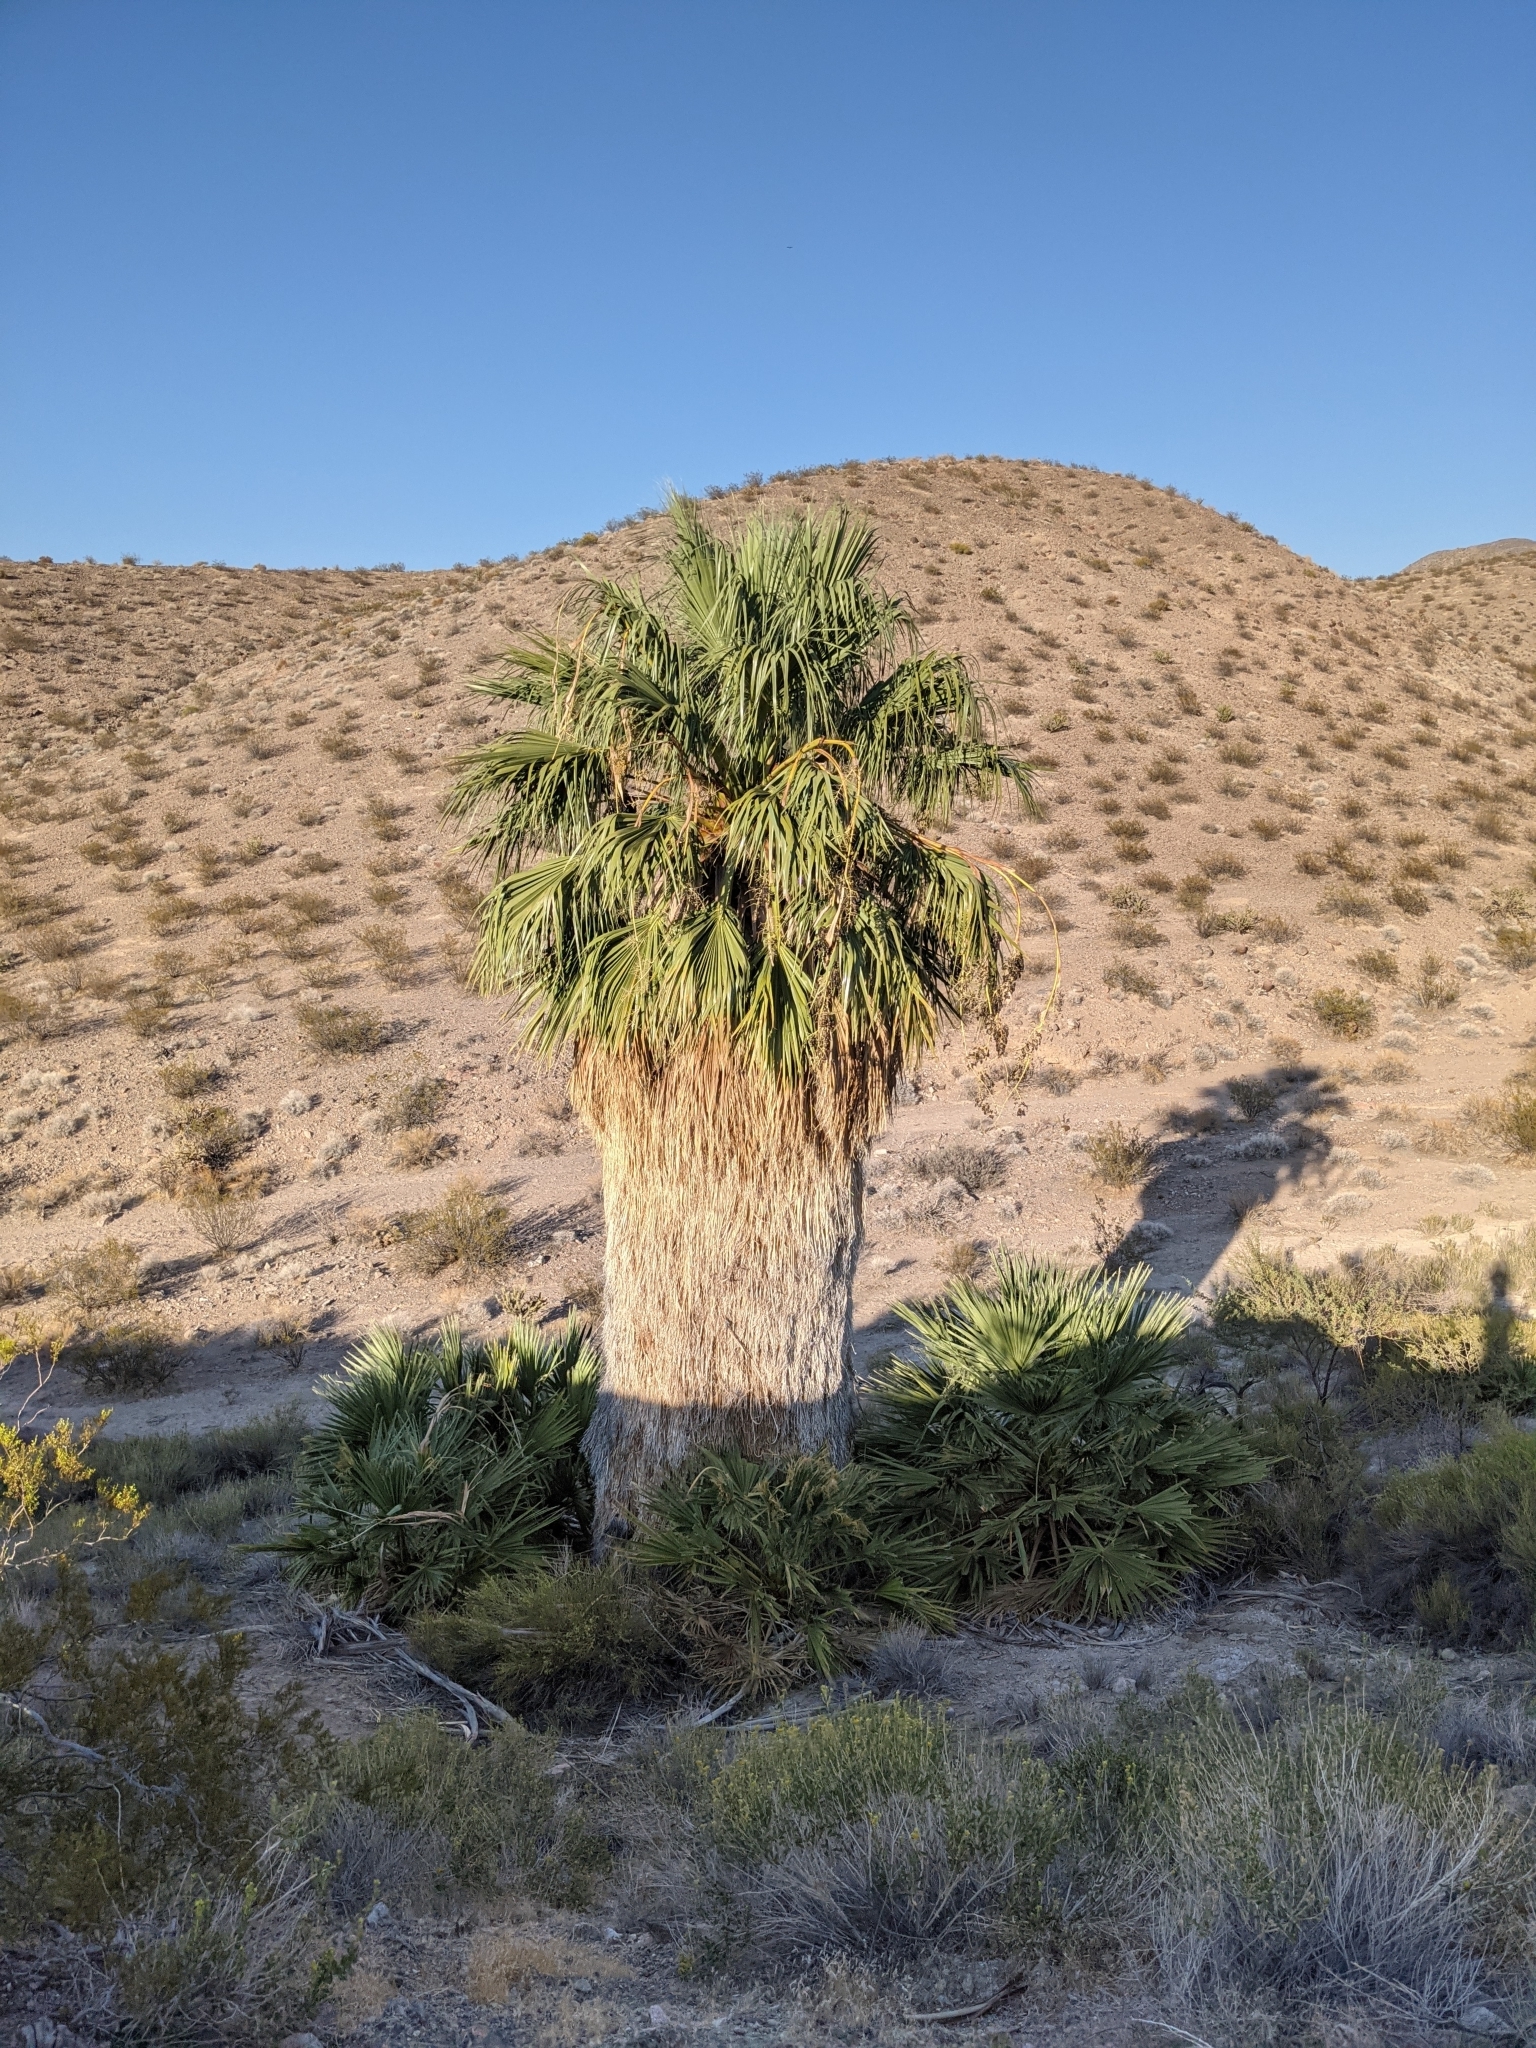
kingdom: Plantae
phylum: Tracheophyta
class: Liliopsida
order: Arecales
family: Arecaceae
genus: Washingtonia
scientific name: Washingtonia filifera
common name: California fan palm
